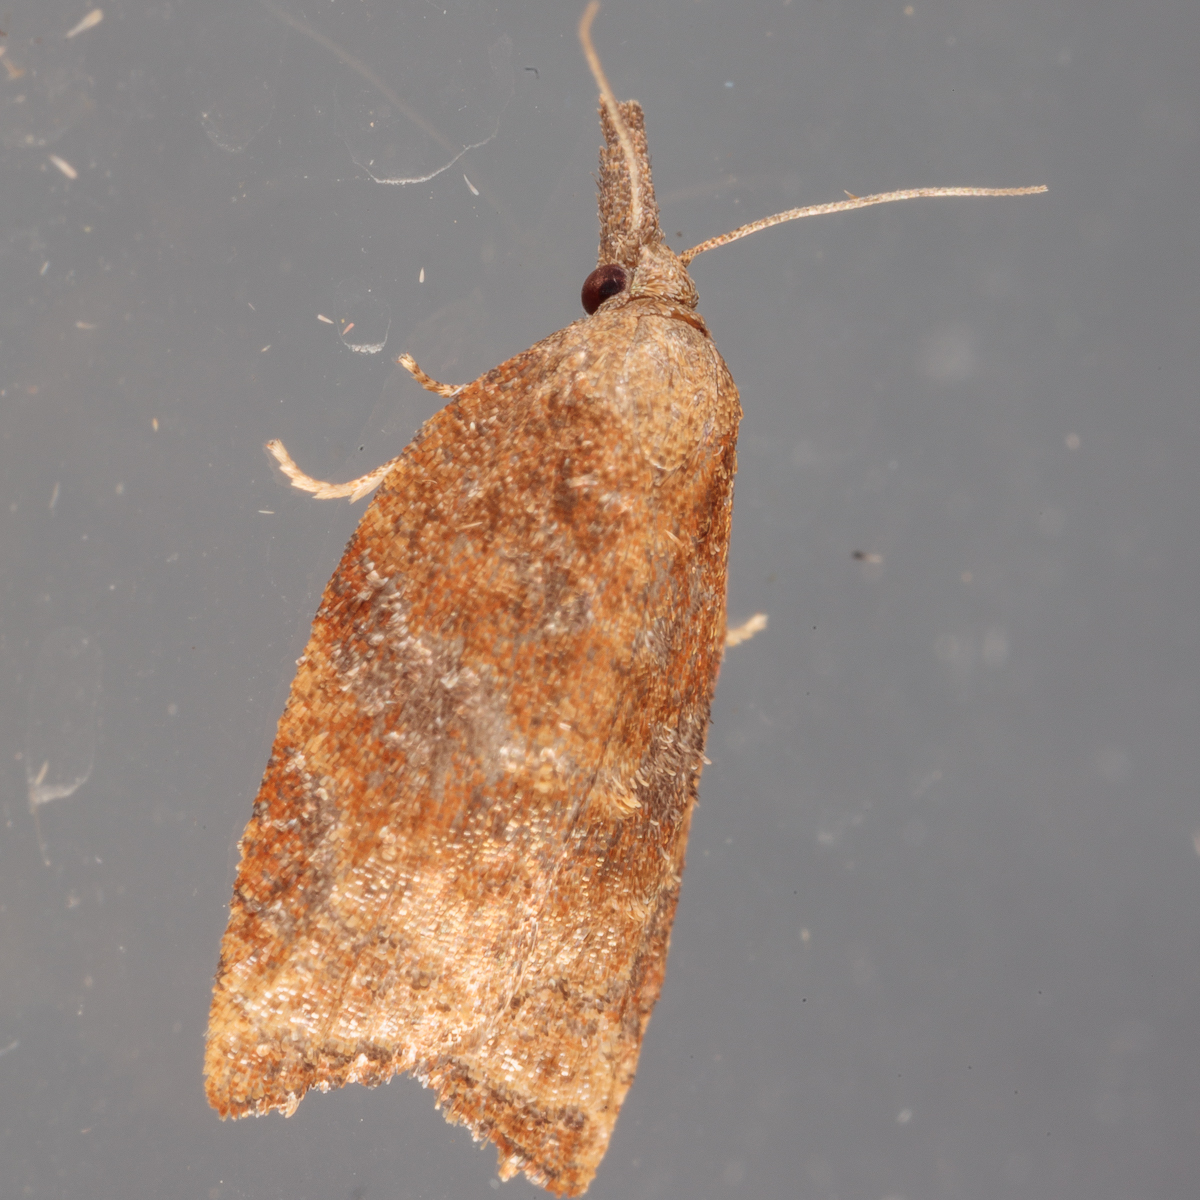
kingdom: Animalia
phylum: Arthropoda
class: Insecta
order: Lepidoptera
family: Tortricidae
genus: Platynota
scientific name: Platynota stultana
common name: Omnivorous leafroller
